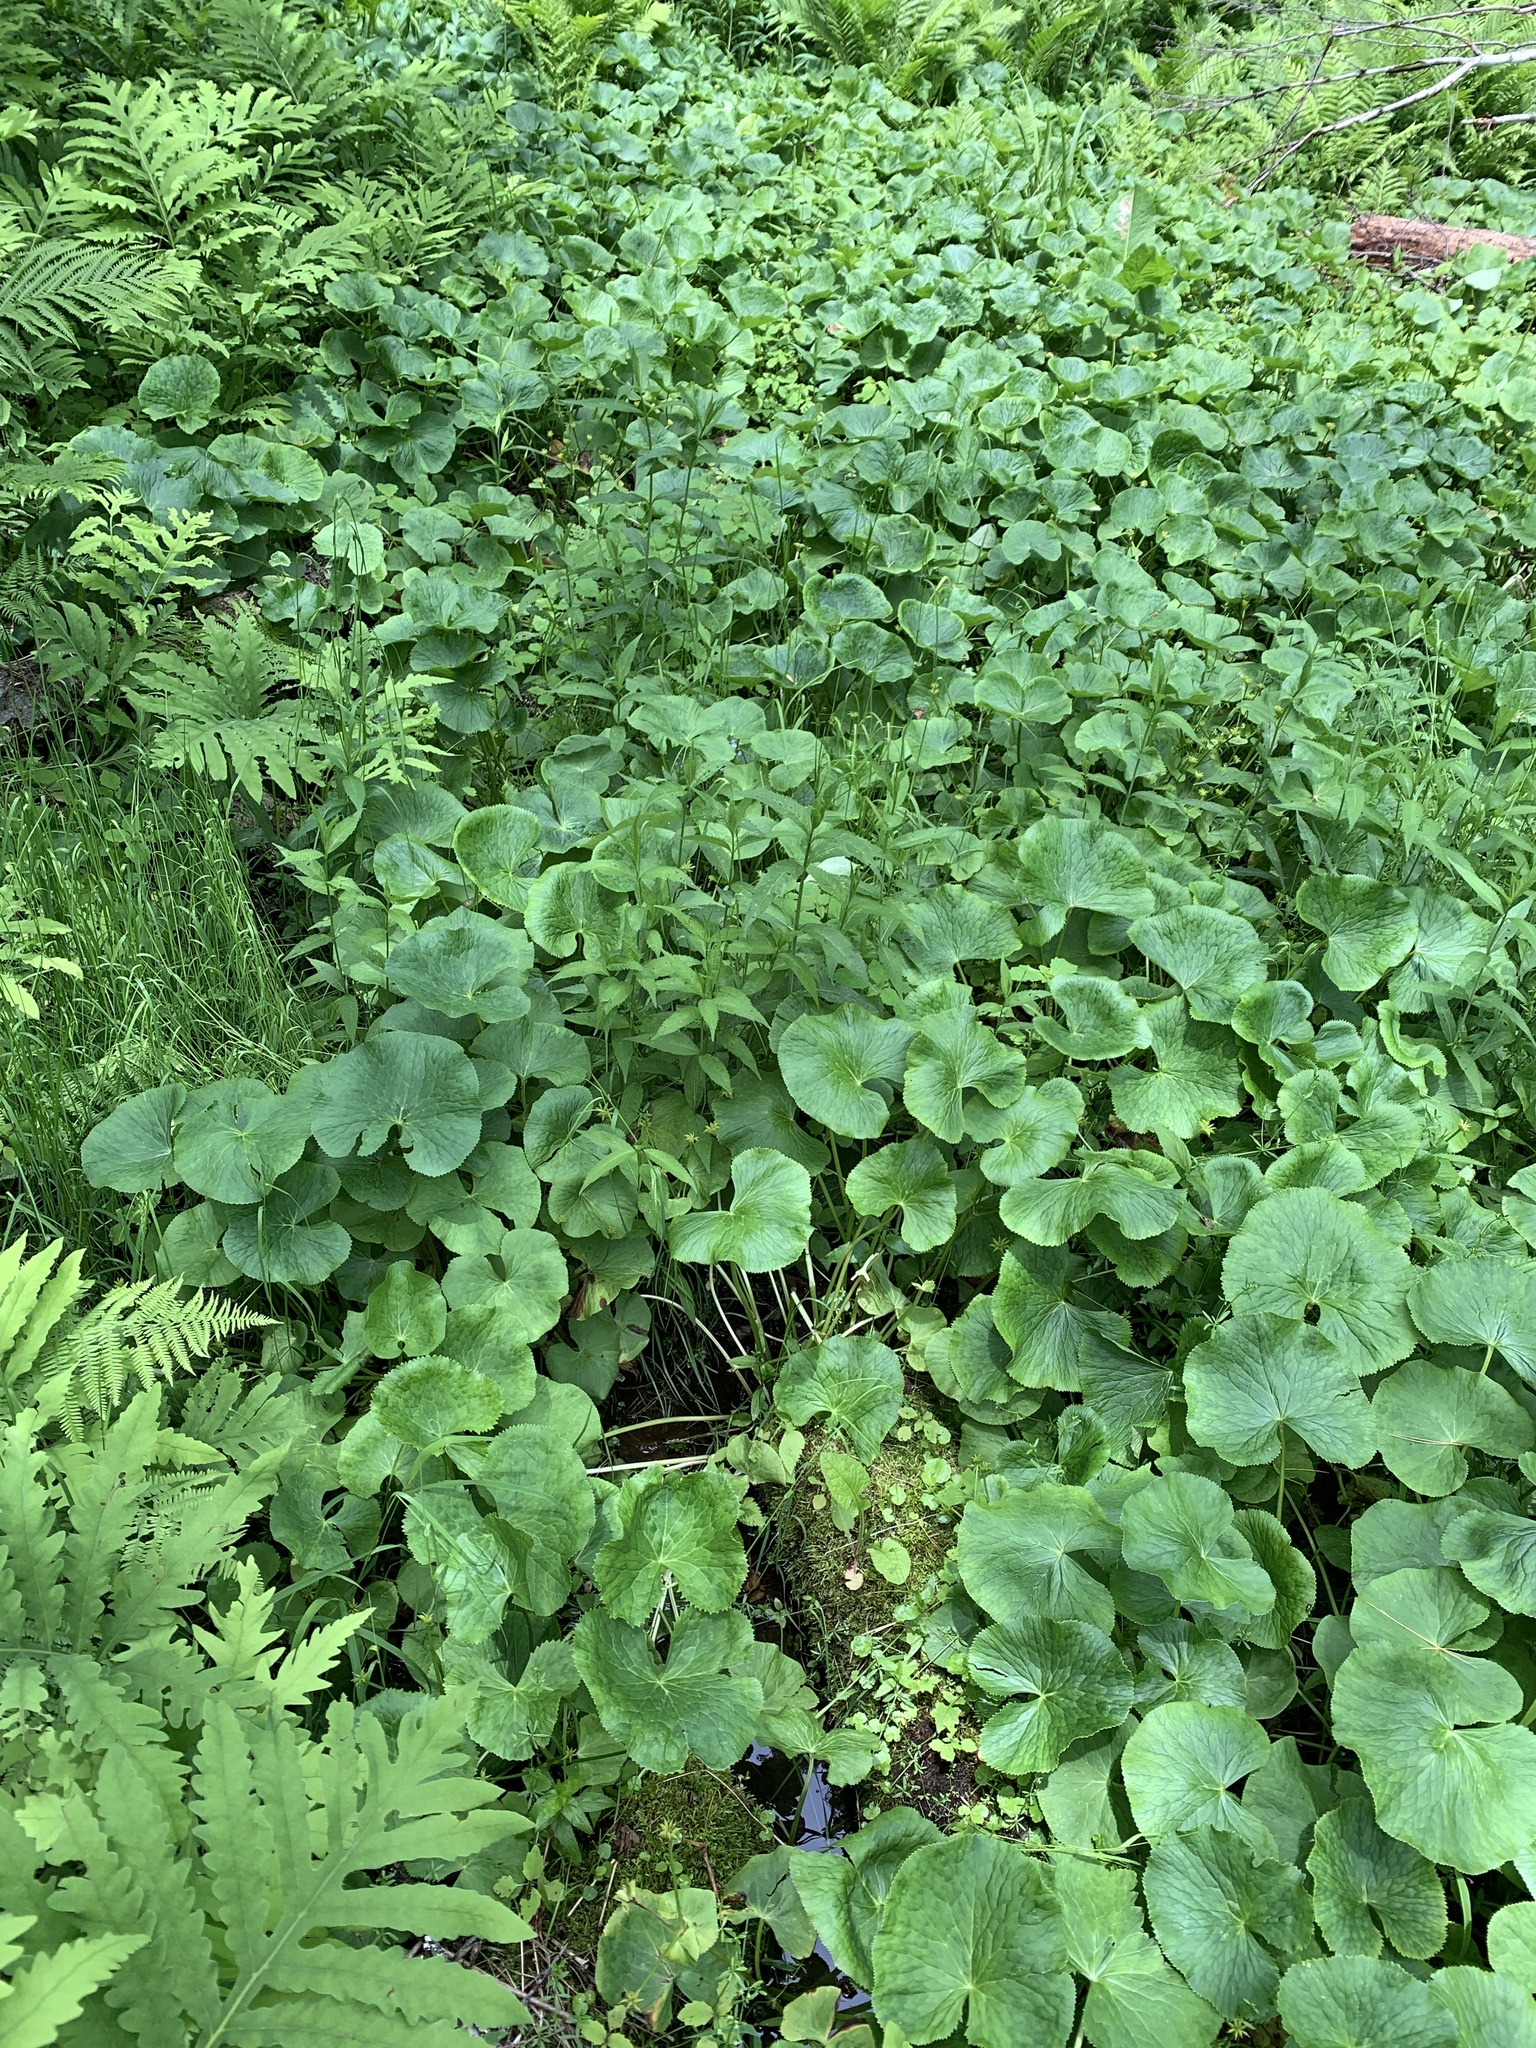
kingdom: Plantae
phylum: Tracheophyta
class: Magnoliopsida
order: Ranunculales
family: Ranunculaceae
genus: Caltha
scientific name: Caltha palustris
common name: Marsh marigold
